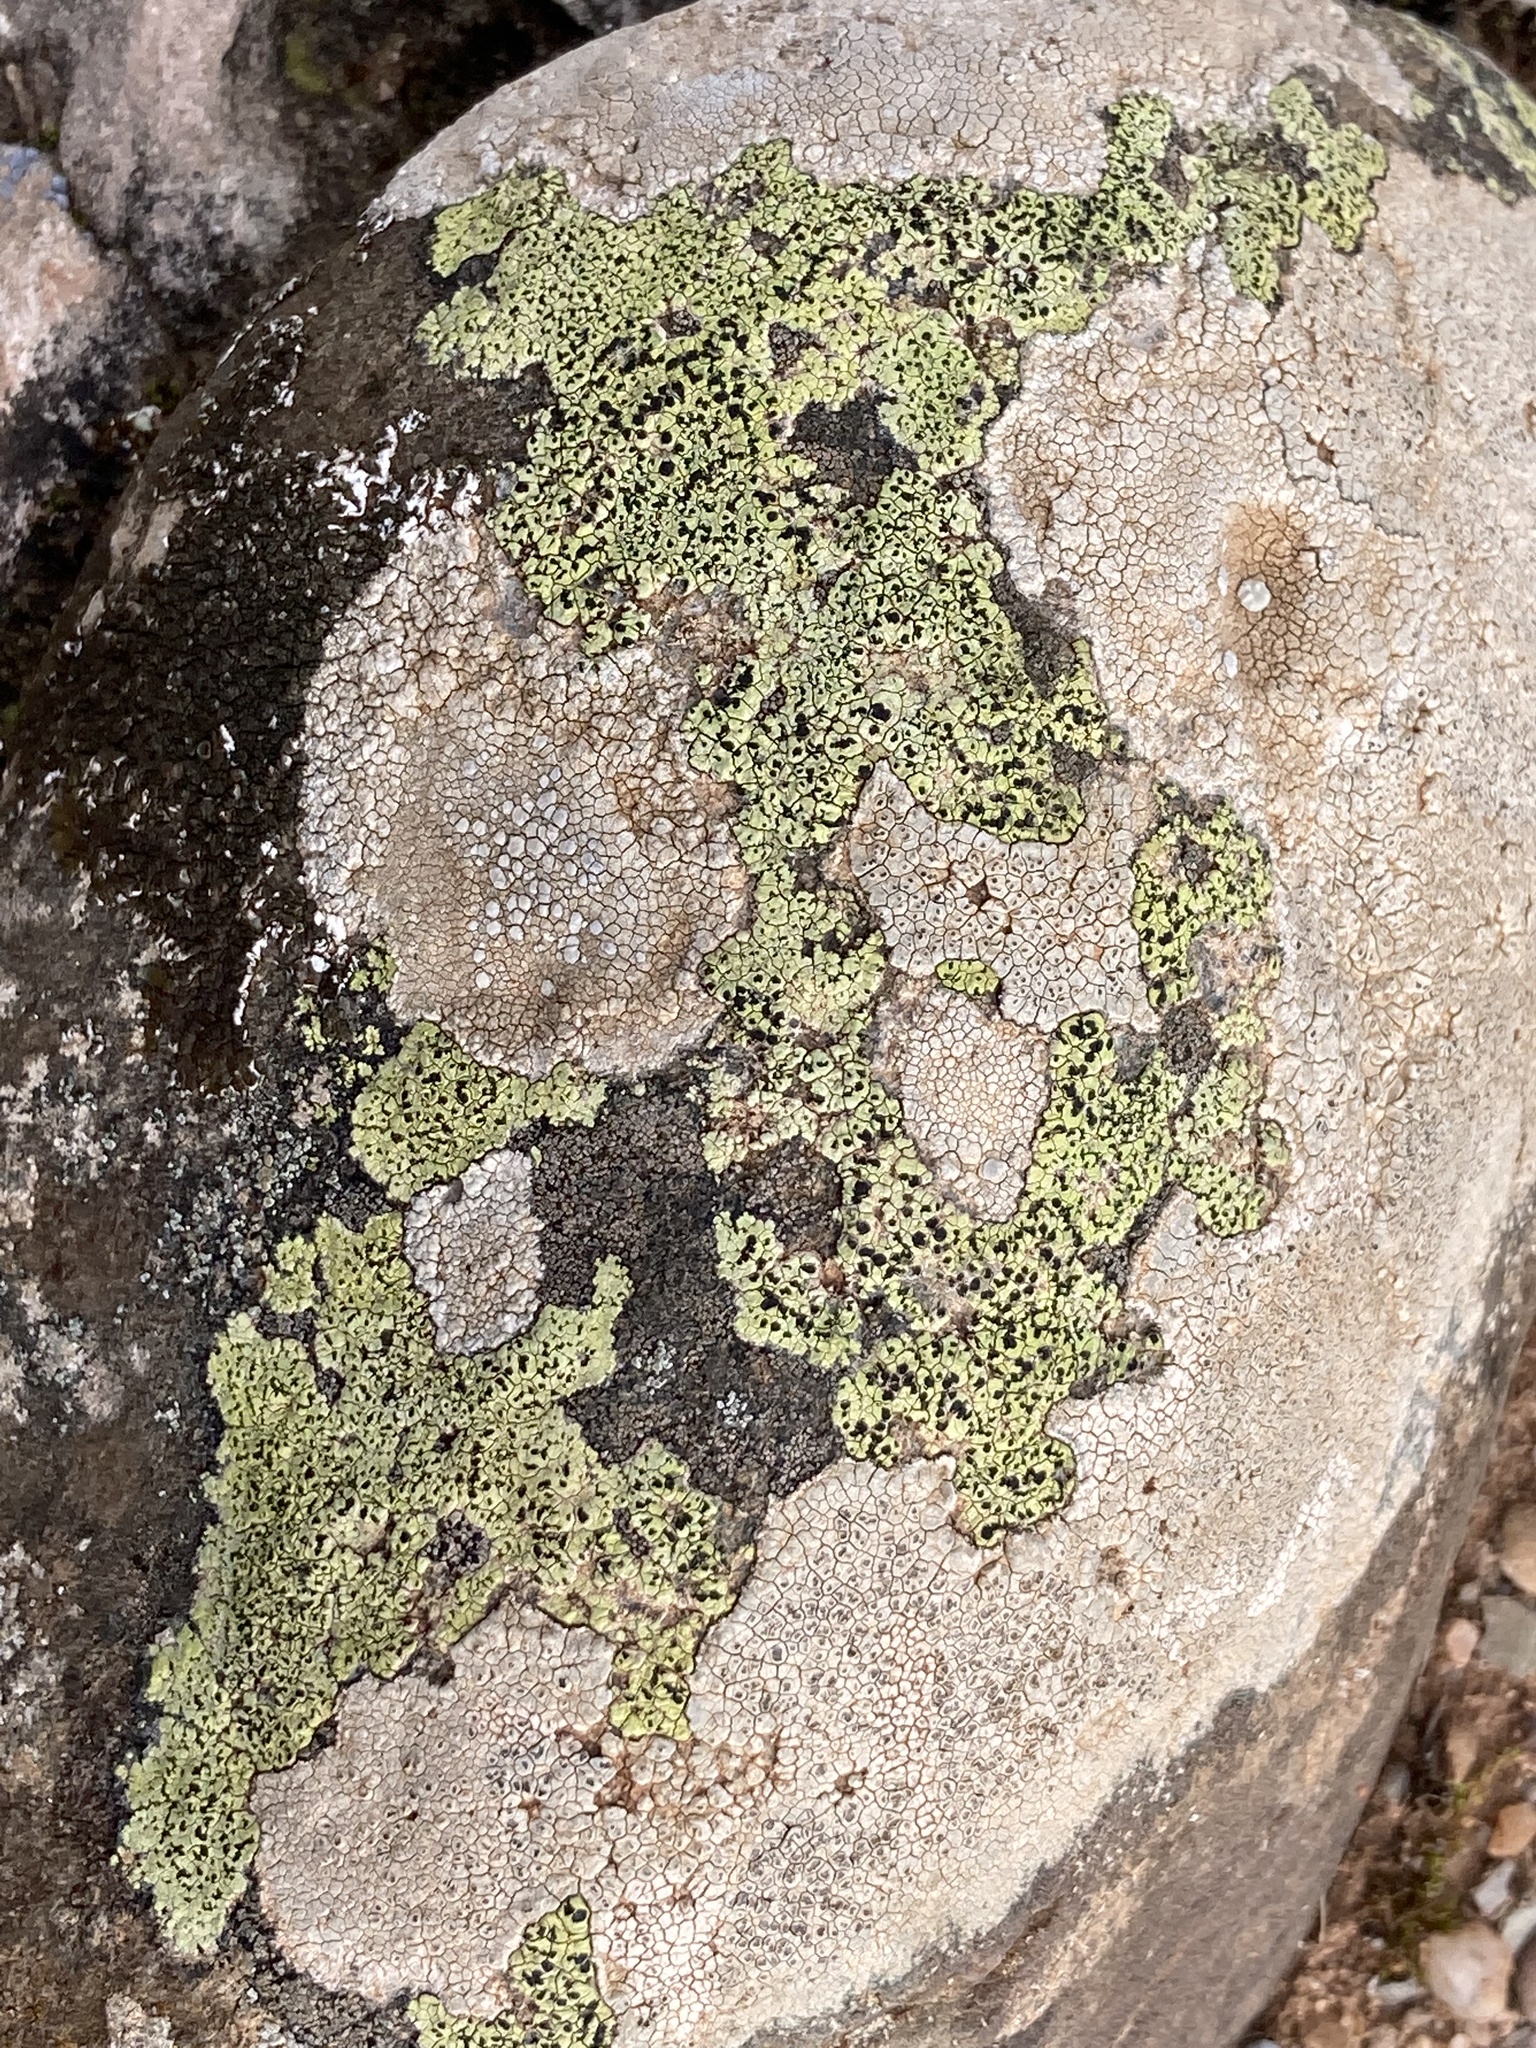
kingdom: Fungi
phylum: Ascomycota
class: Lecanoromycetes
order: Rhizocarpales
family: Rhizocarpaceae
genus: Rhizocarpon
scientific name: Rhizocarpon geographicum
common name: Yellow map lichen
